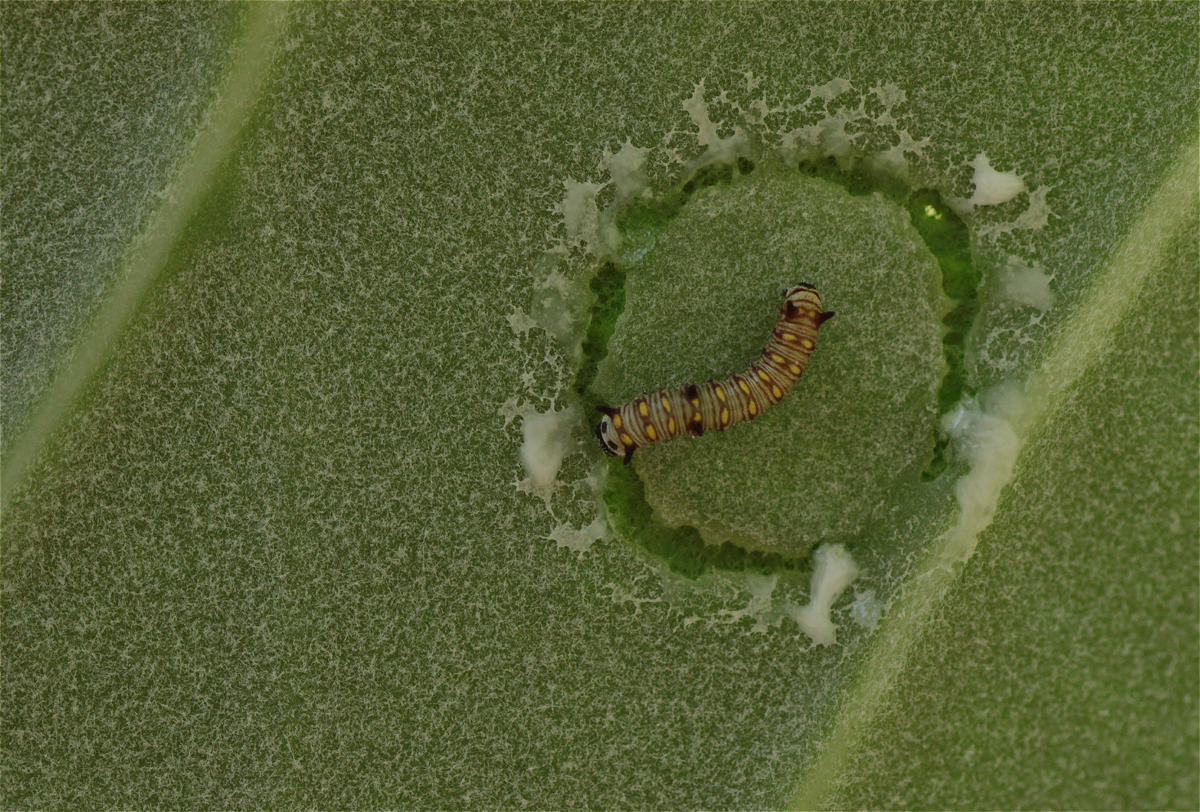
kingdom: Animalia
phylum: Arthropoda
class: Insecta
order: Lepidoptera
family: Nymphalidae
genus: Danaus
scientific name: Danaus chrysippus
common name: Plain tiger
